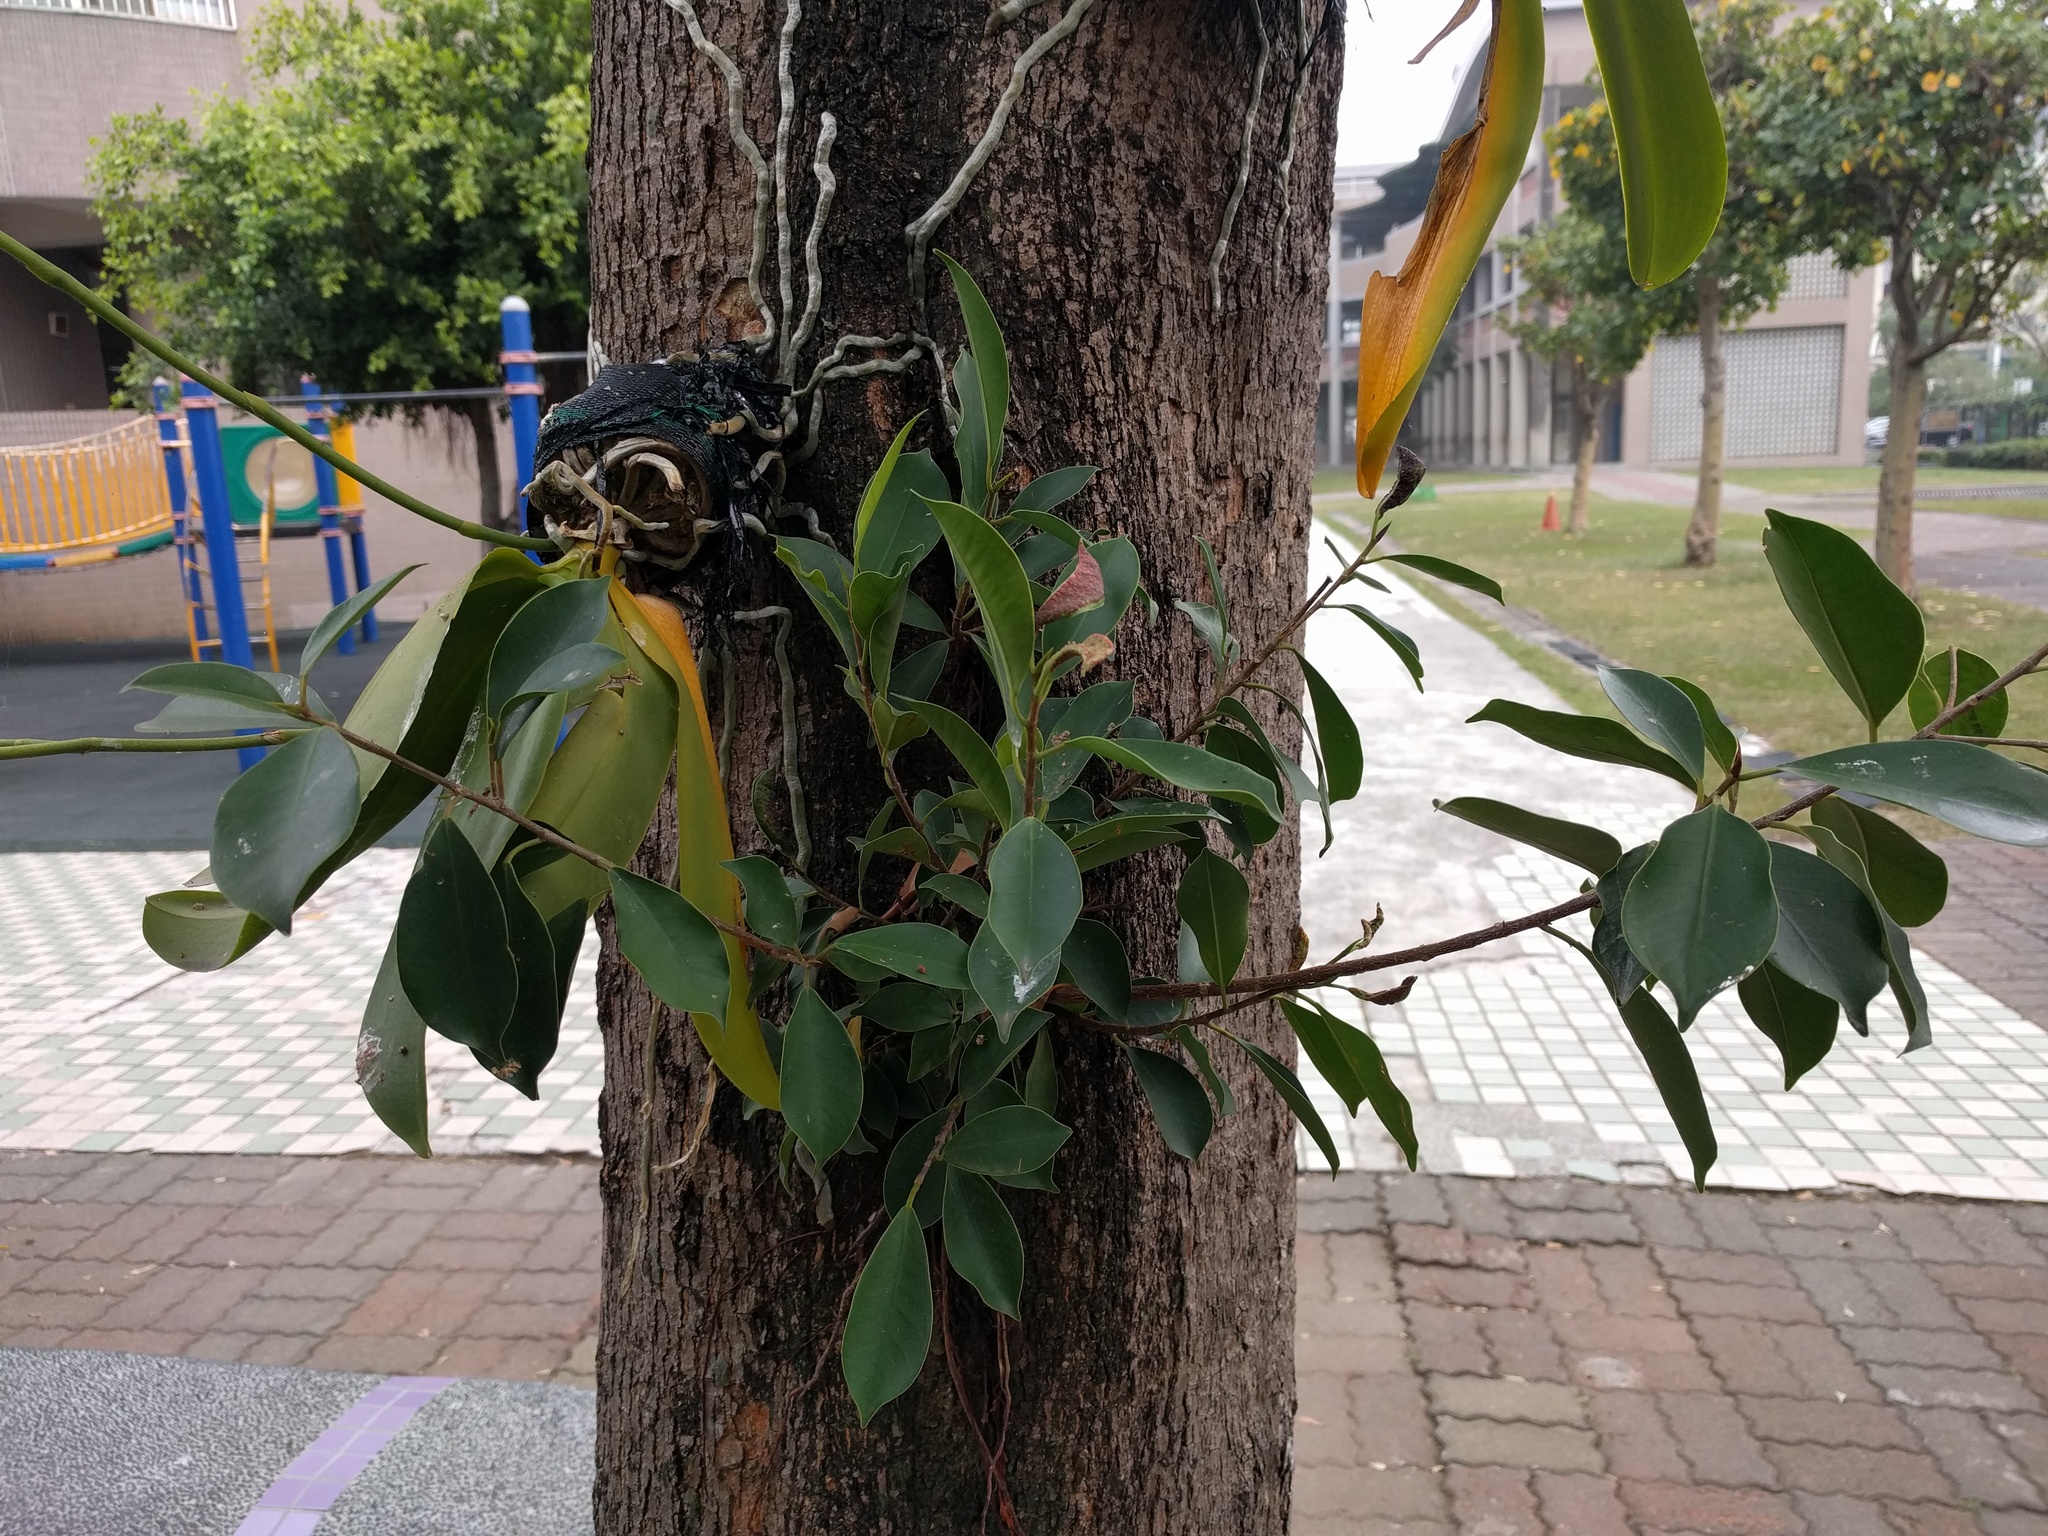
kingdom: Plantae
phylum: Tracheophyta
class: Magnoliopsida
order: Rosales
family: Moraceae
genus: Ficus
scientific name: Ficus microcarpa
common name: Chinese banyan
